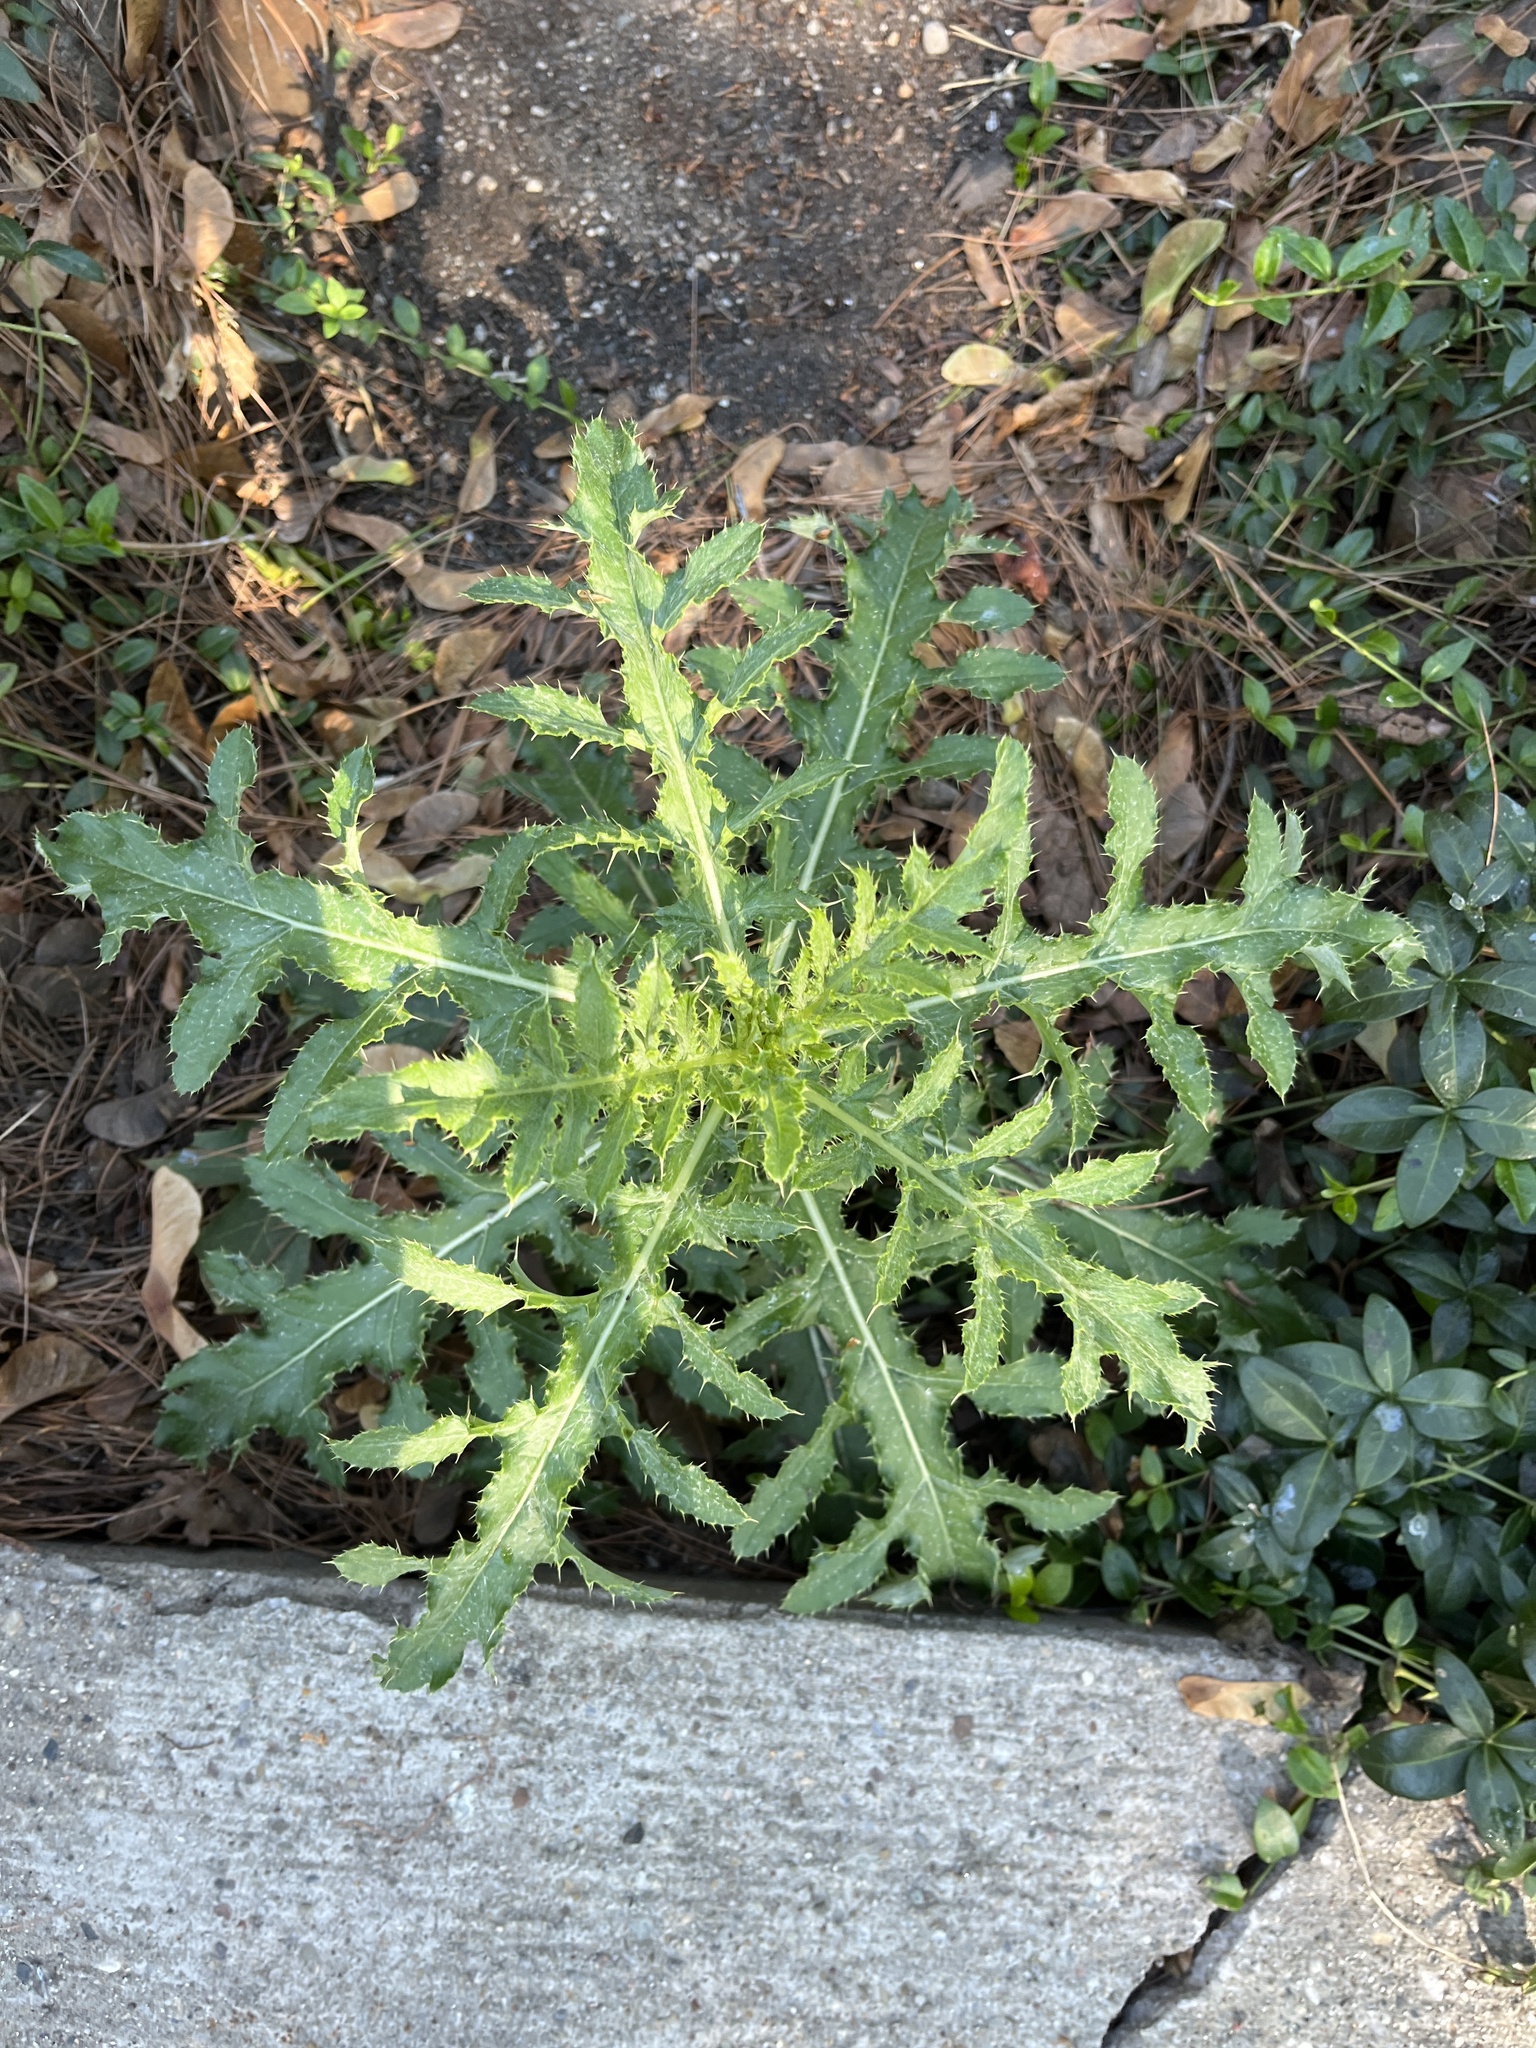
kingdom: Plantae
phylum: Tracheophyta
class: Magnoliopsida
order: Asterales
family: Asteraceae
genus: Cirsium
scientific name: Cirsium arvense
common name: Creeping thistle
